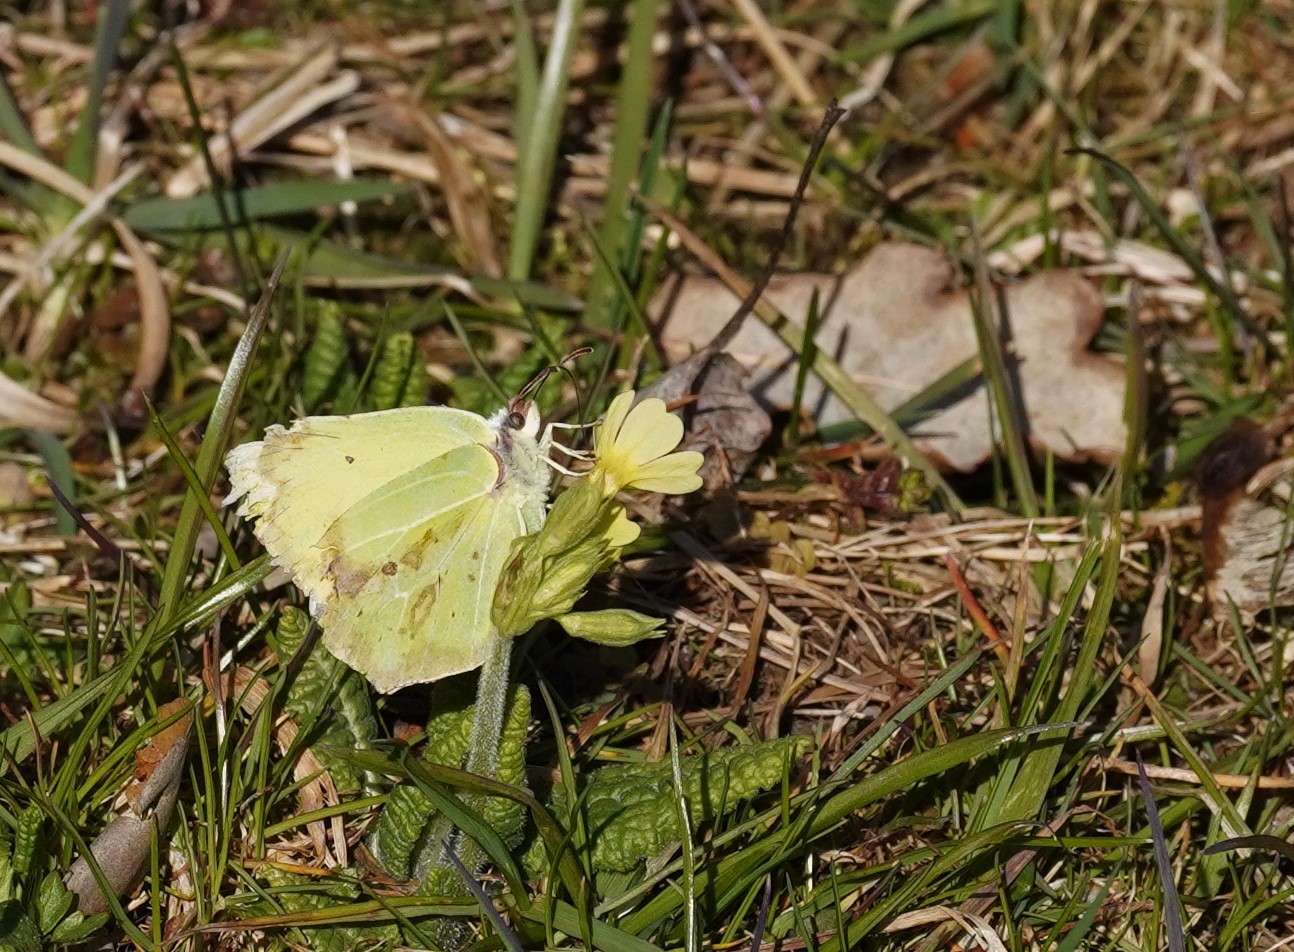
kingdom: Animalia
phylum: Arthropoda
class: Insecta
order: Lepidoptera
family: Pieridae
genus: Gonepteryx
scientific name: Gonepteryx rhamni
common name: Brimstone
